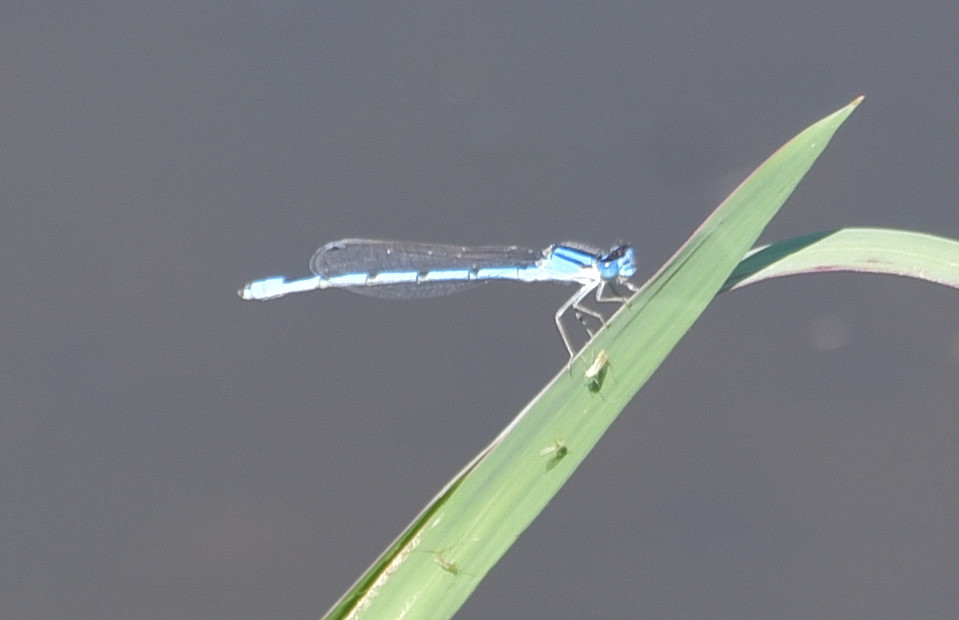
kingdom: Animalia
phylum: Arthropoda
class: Insecta
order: Odonata
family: Coenagrionidae
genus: Enallagma
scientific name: Enallagma civile
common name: Damselfly
